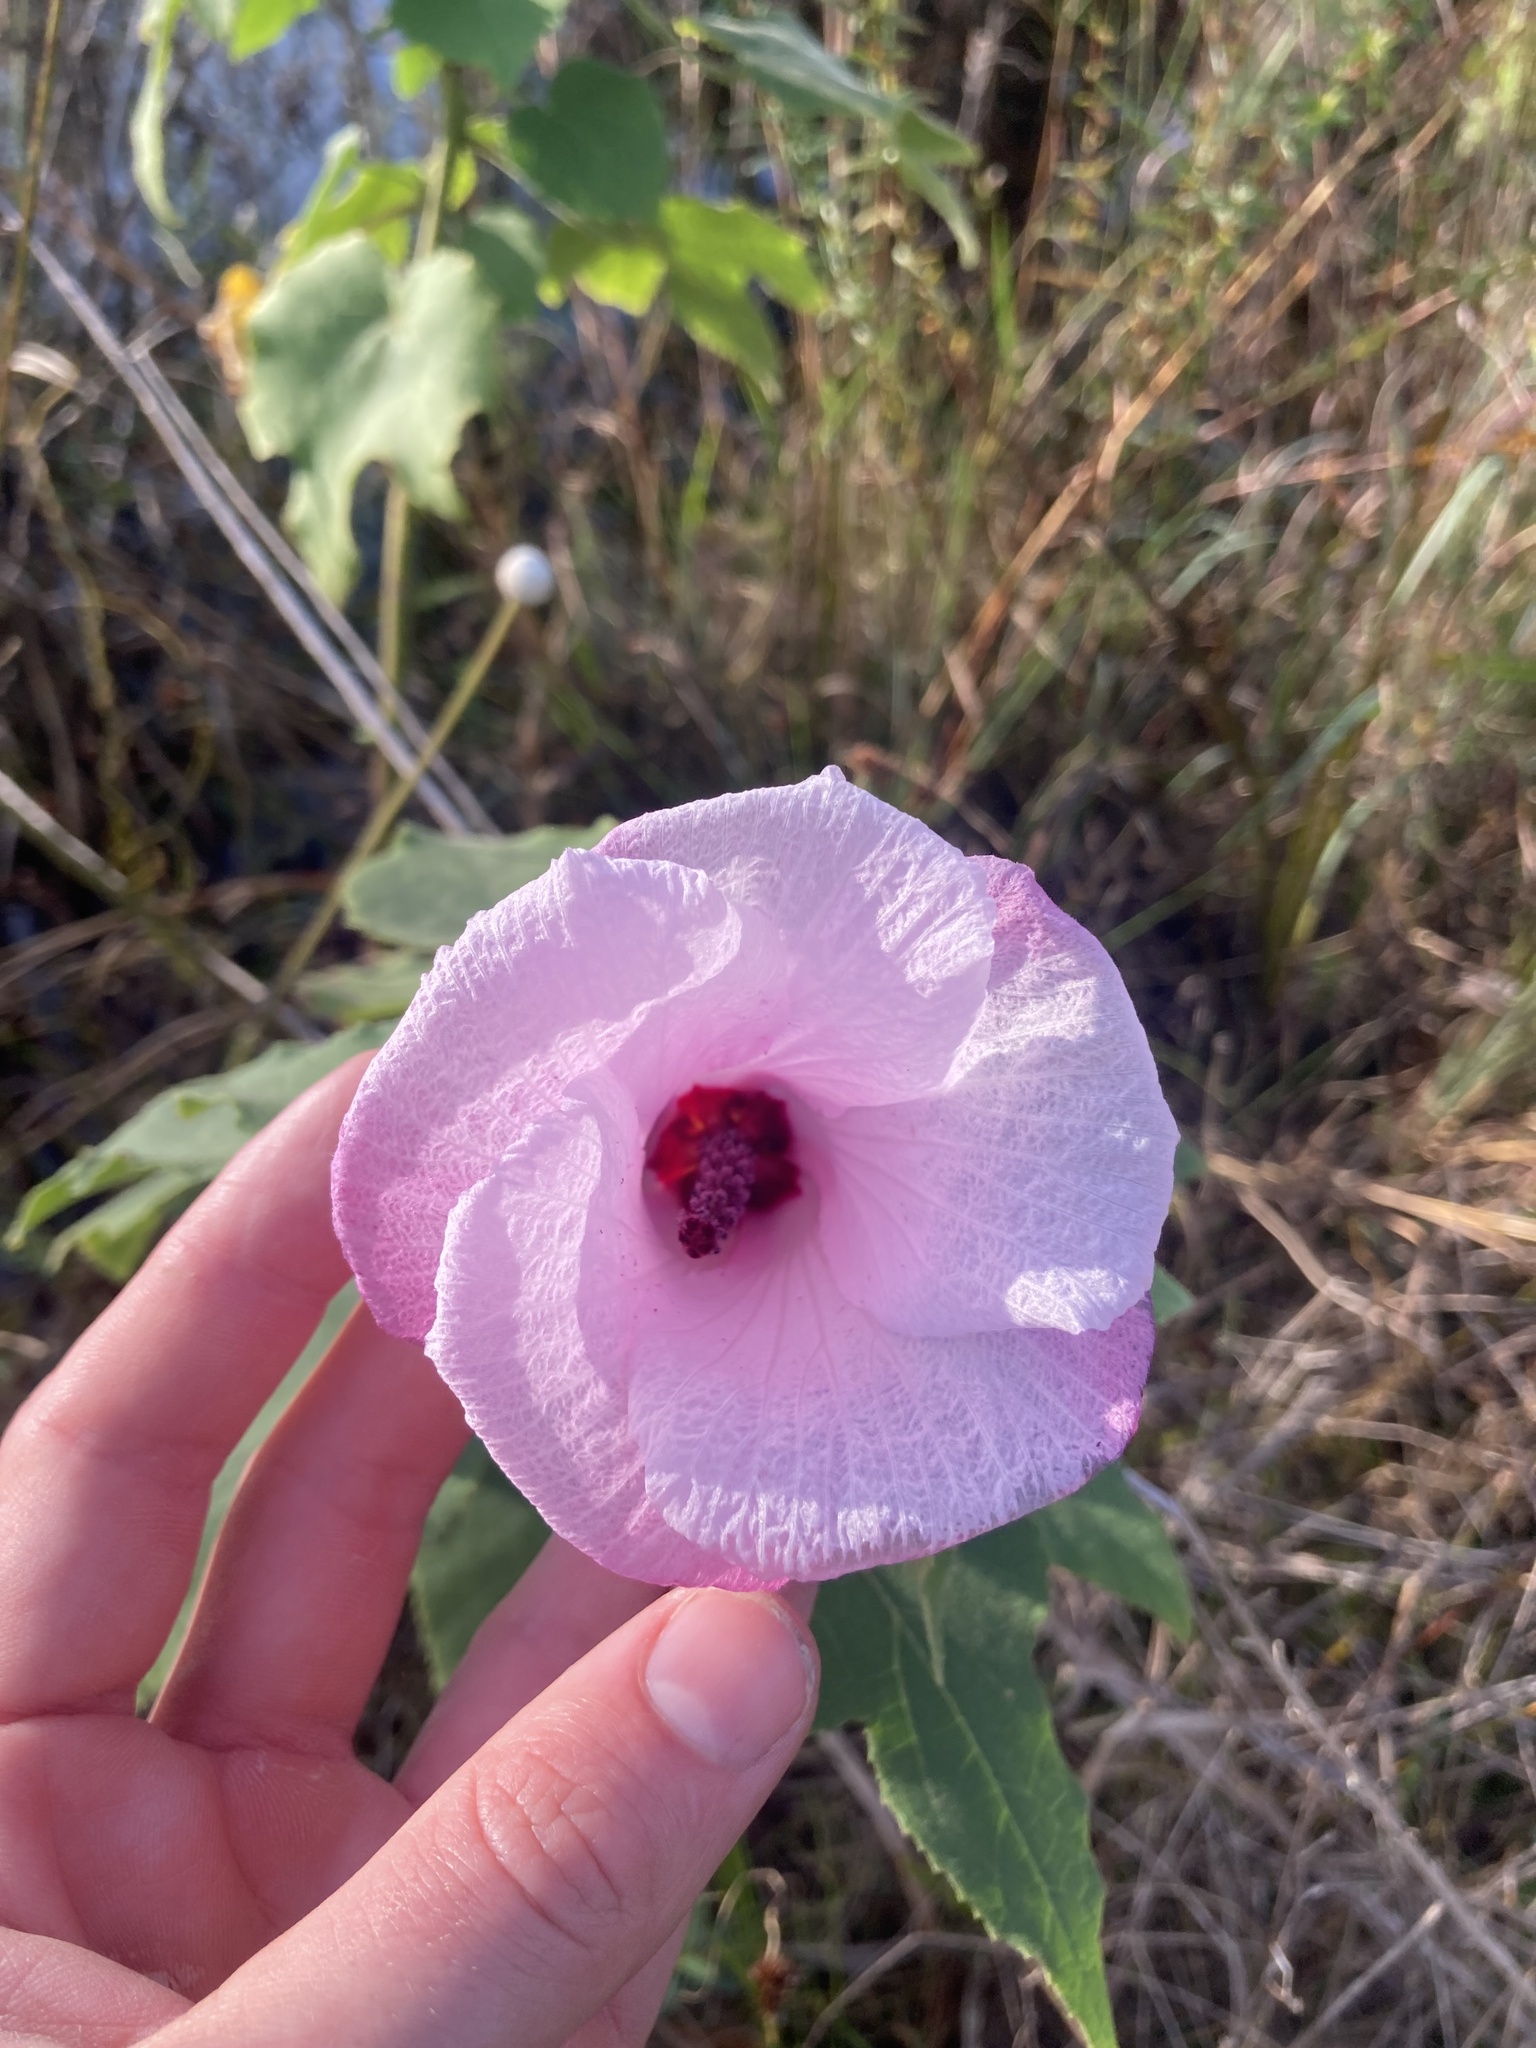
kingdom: Plantae
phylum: Tracheophyta
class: Magnoliopsida
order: Malvales
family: Malvaceae
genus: Hibiscus
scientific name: Hibiscus furcellatus
